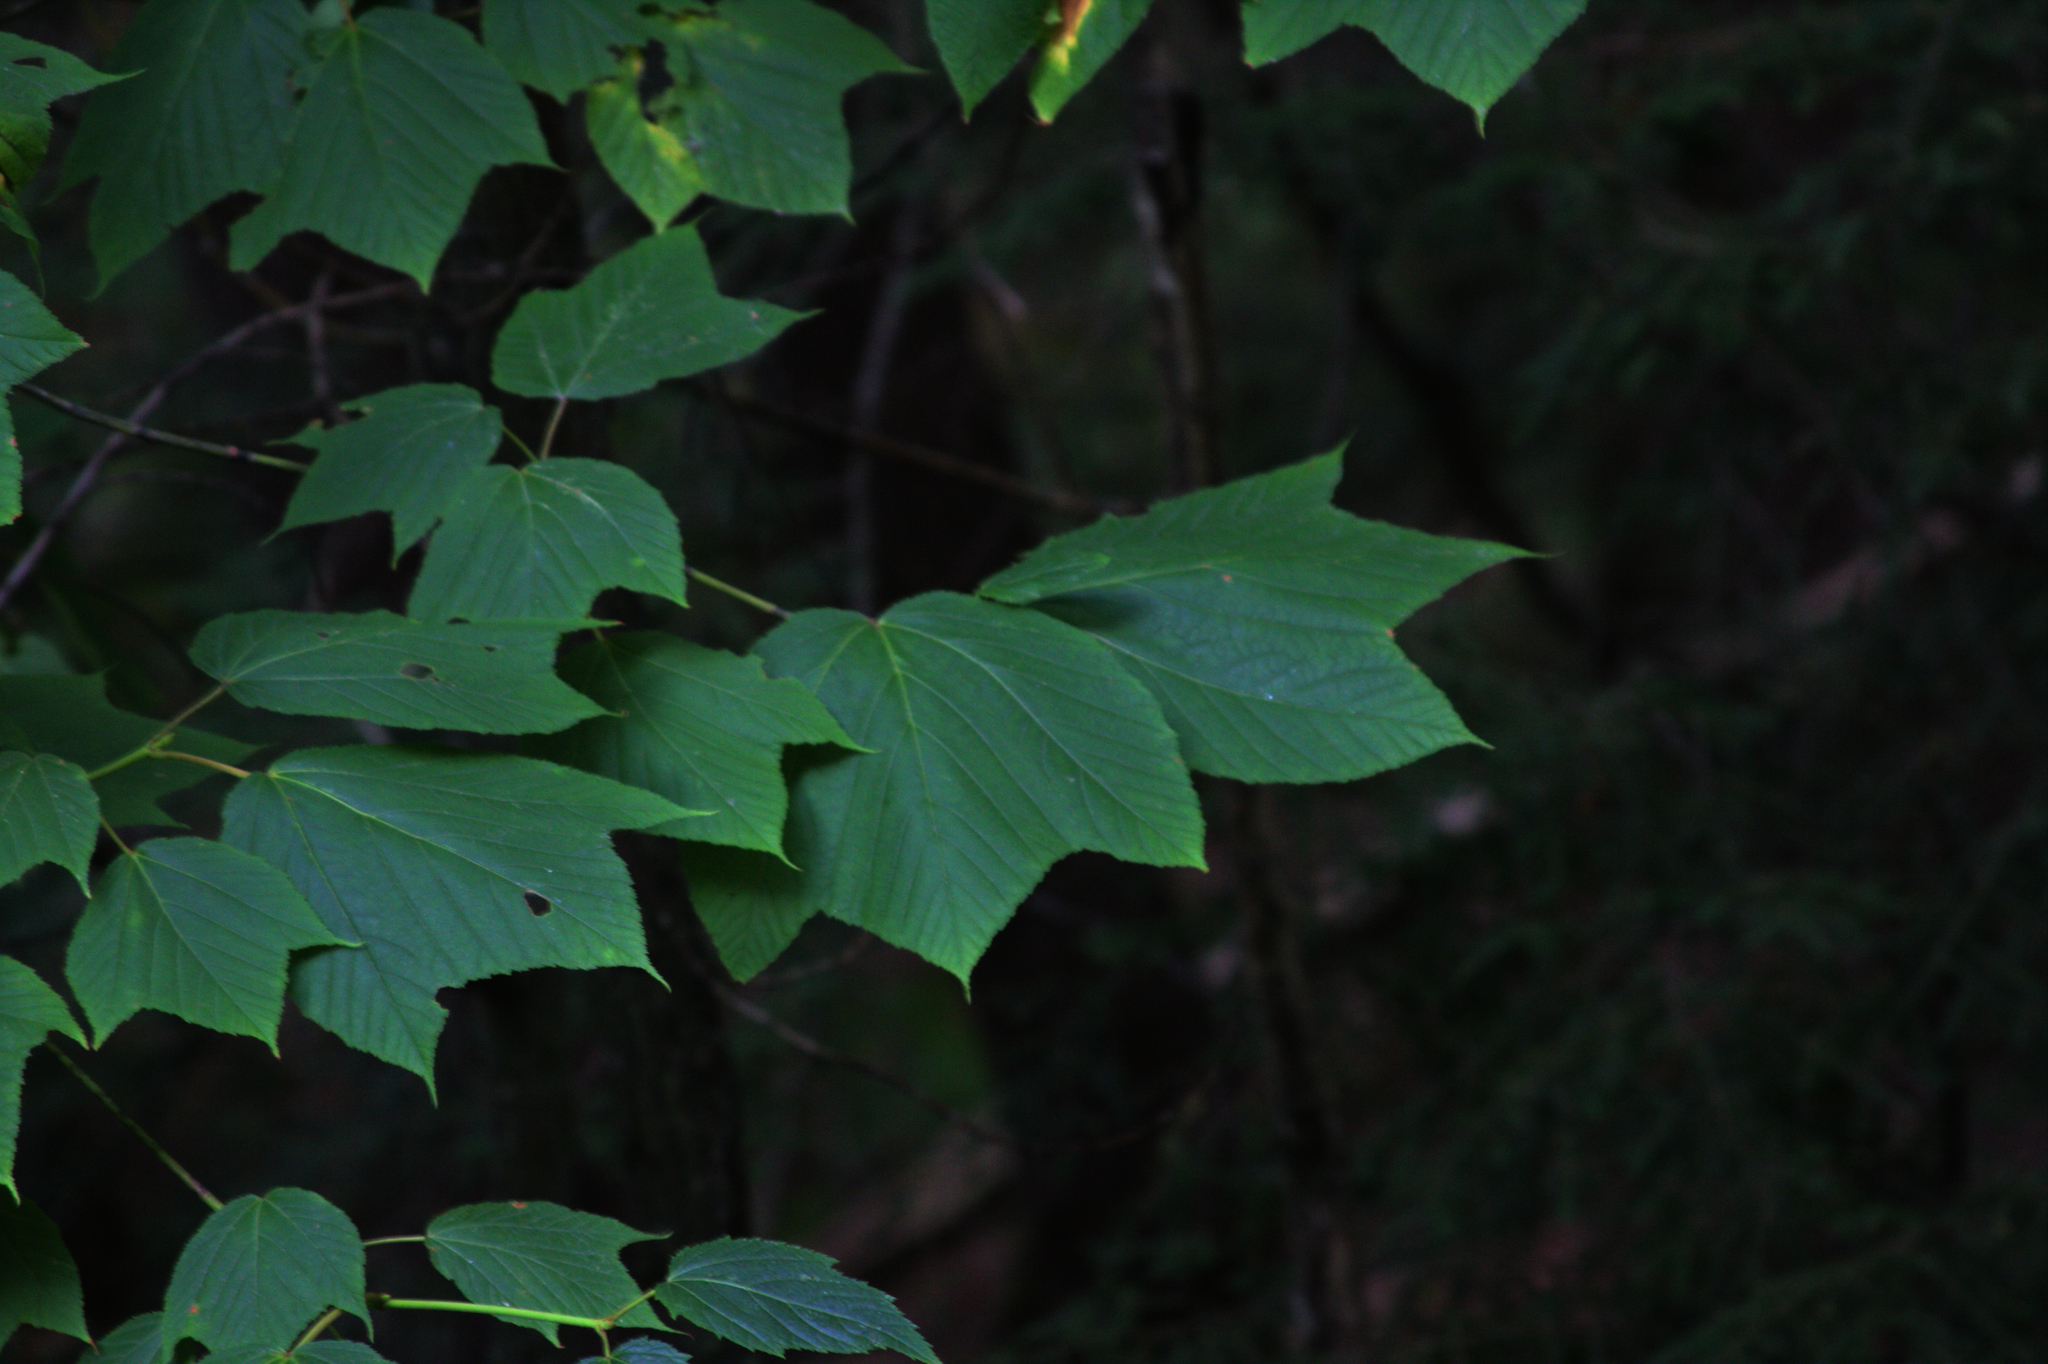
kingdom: Plantae
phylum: Tracheophyta
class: Magnoliopsida
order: Sapindales
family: Sapindaceae
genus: Acer
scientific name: Acer pensylvanicum
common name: Moosewood
